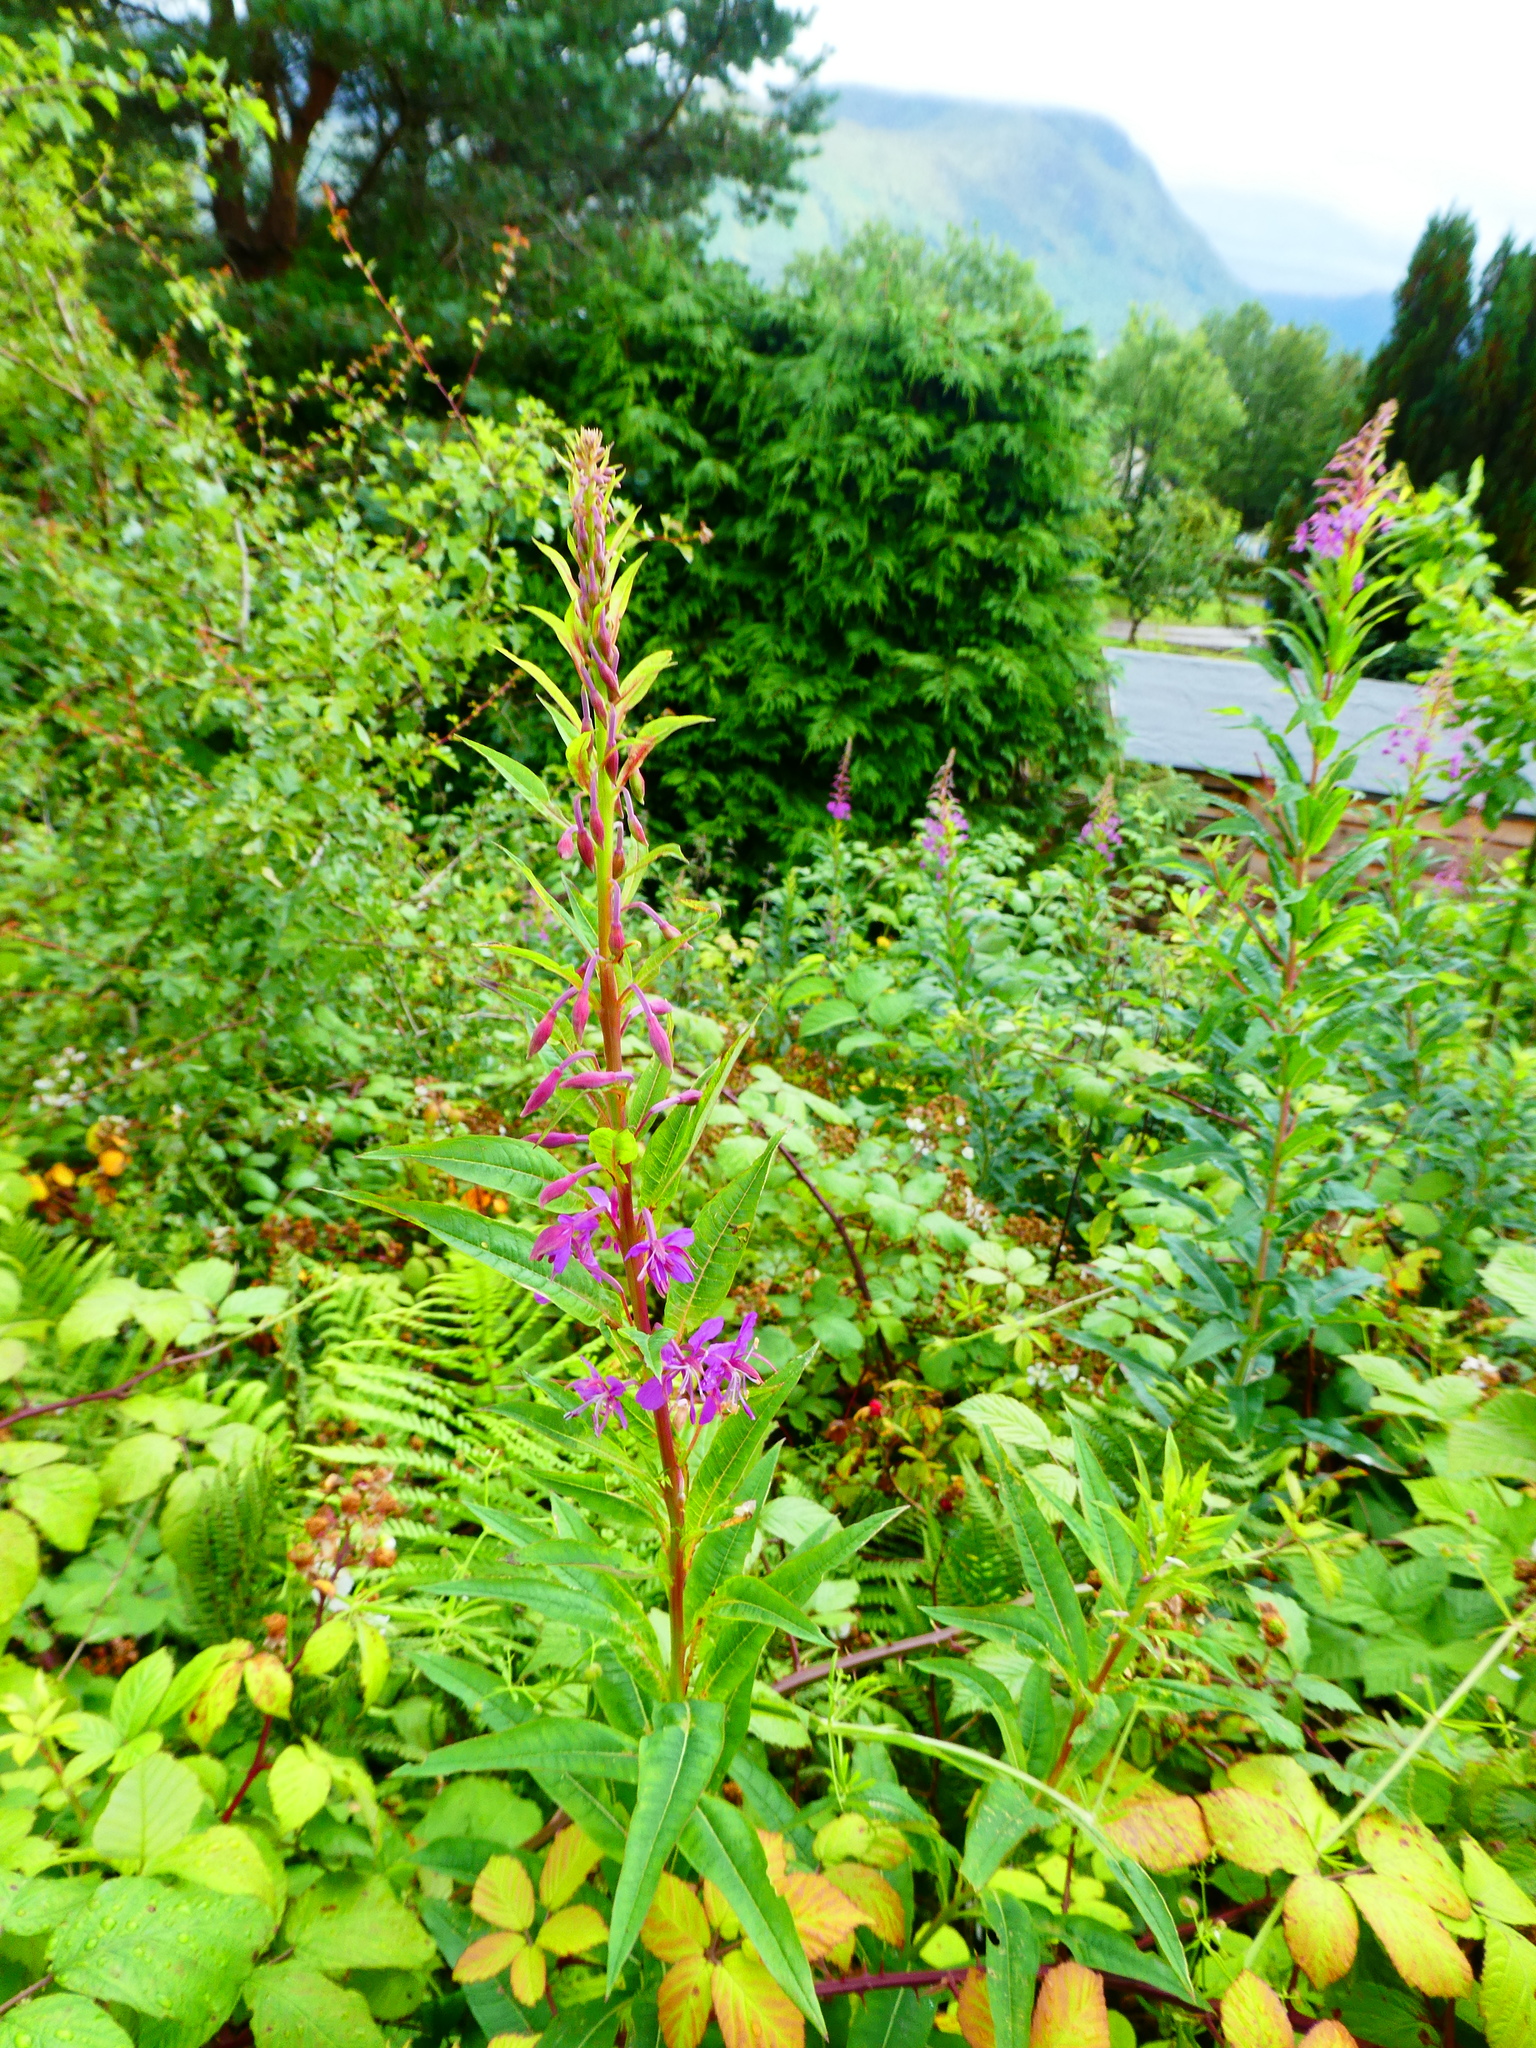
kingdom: Plantae
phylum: Tracheophyta
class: Magnoliopsida
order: Myrtales
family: Onagraceae
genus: Chamaenerion
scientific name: Chamaenerion angustifolium
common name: Fireweed
